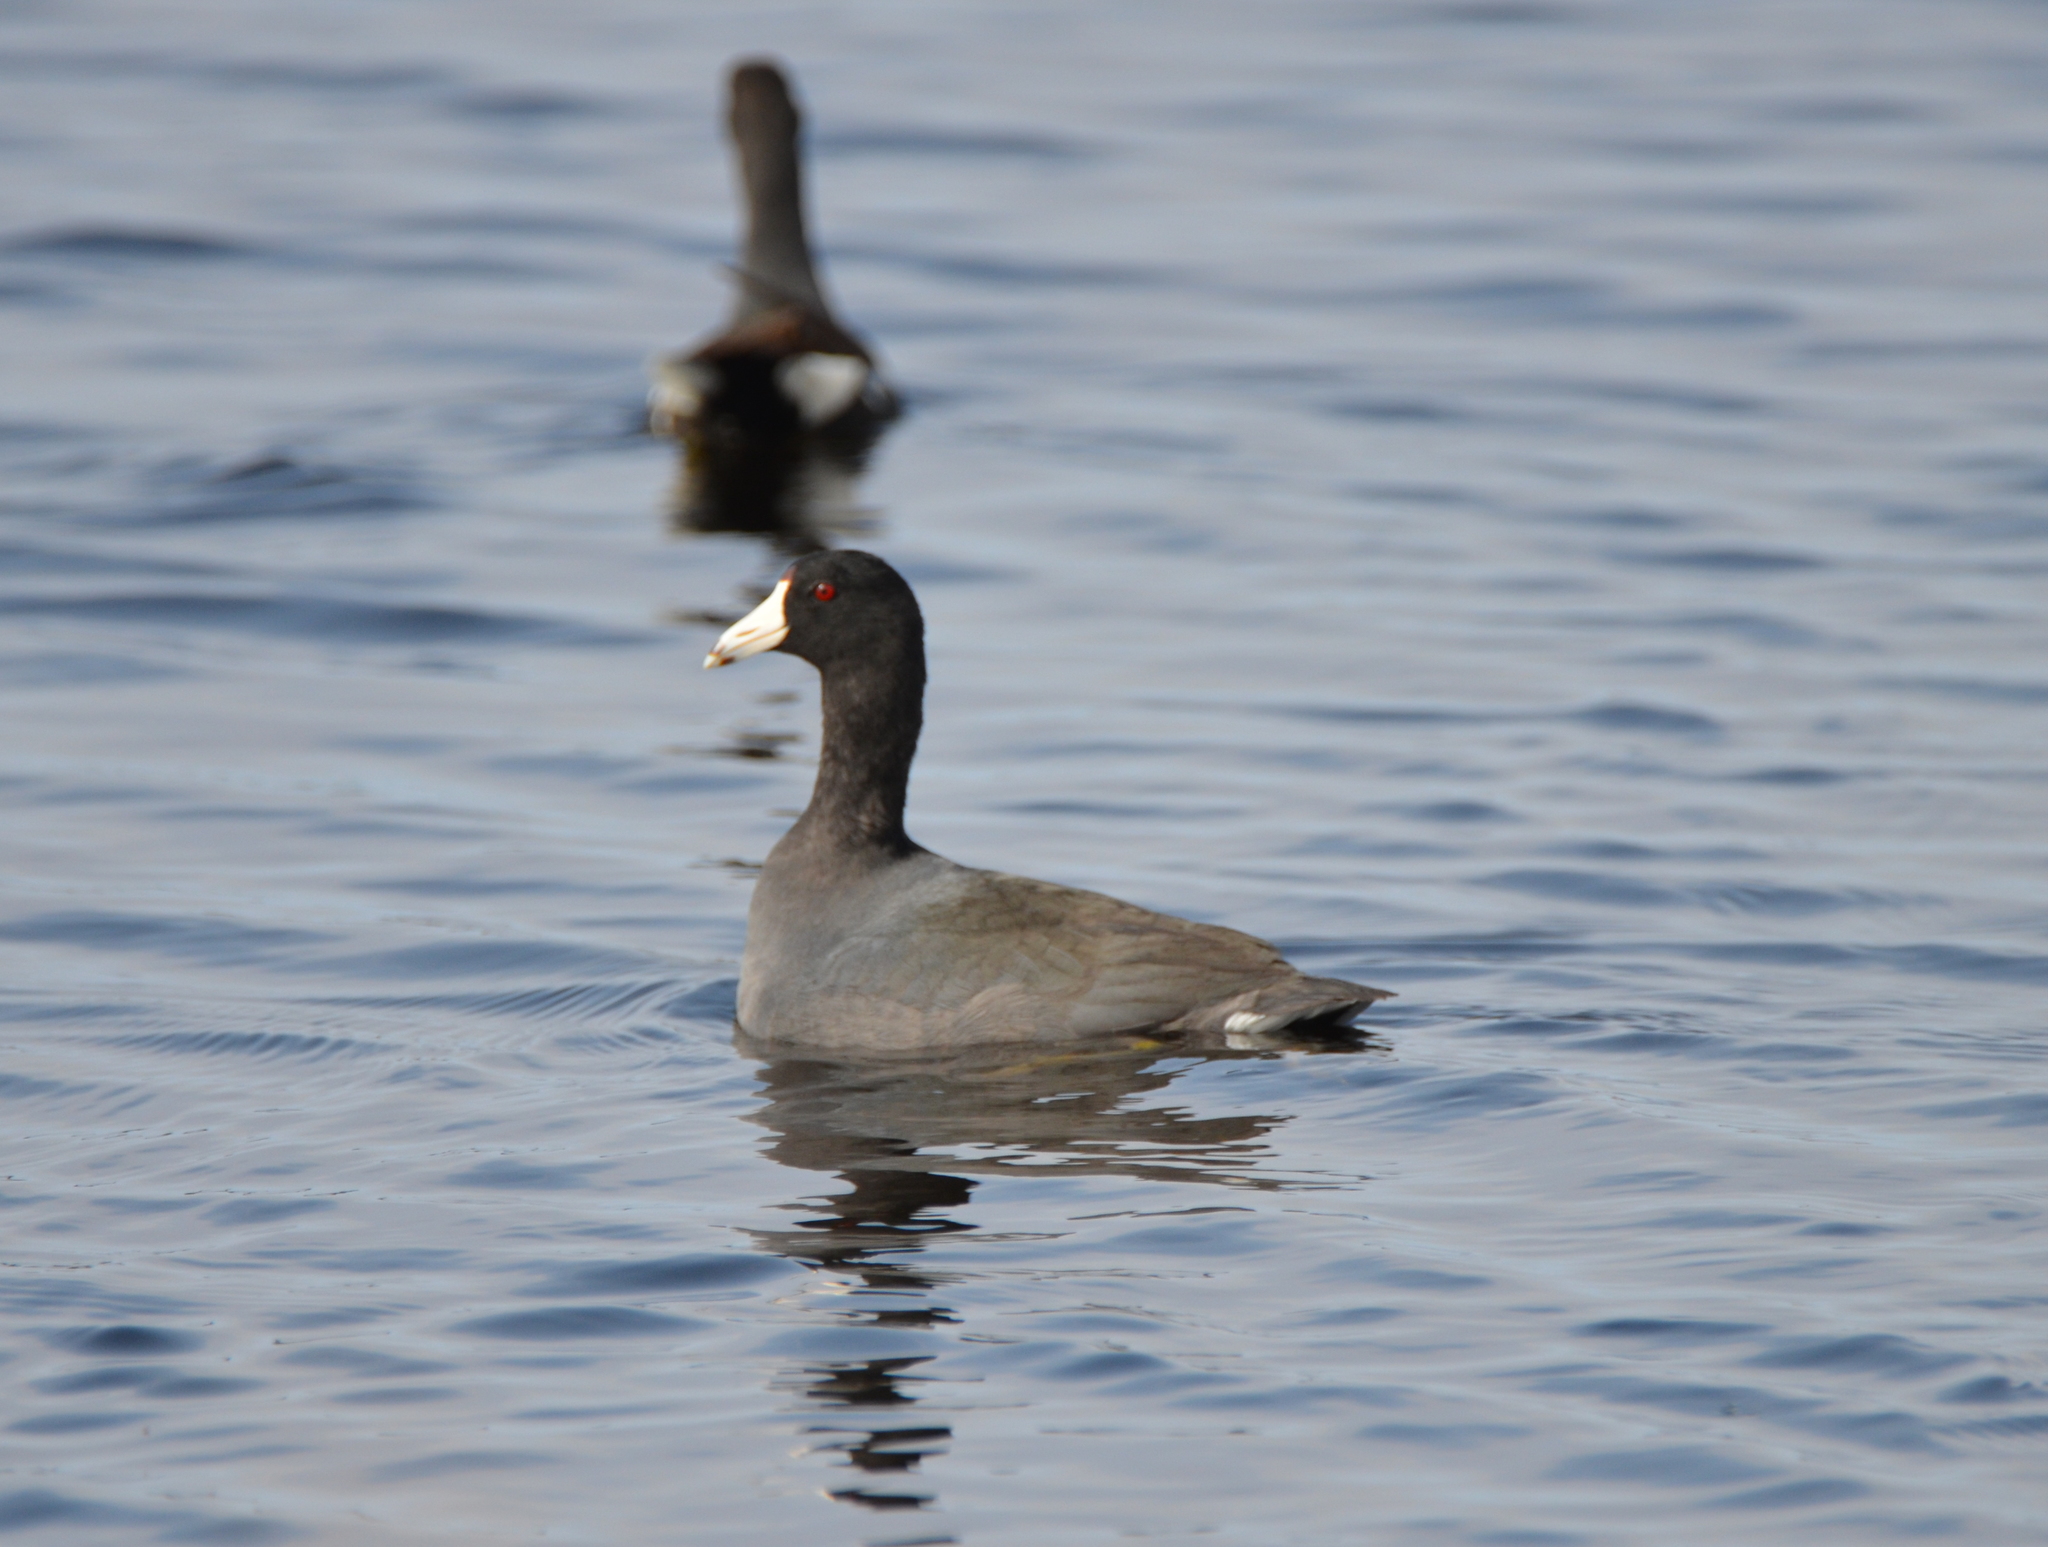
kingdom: Animalia
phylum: Chordata
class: Aves
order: Gruiformes
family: Rallidae
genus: Fulica
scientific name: Fulica americana
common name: American coot
